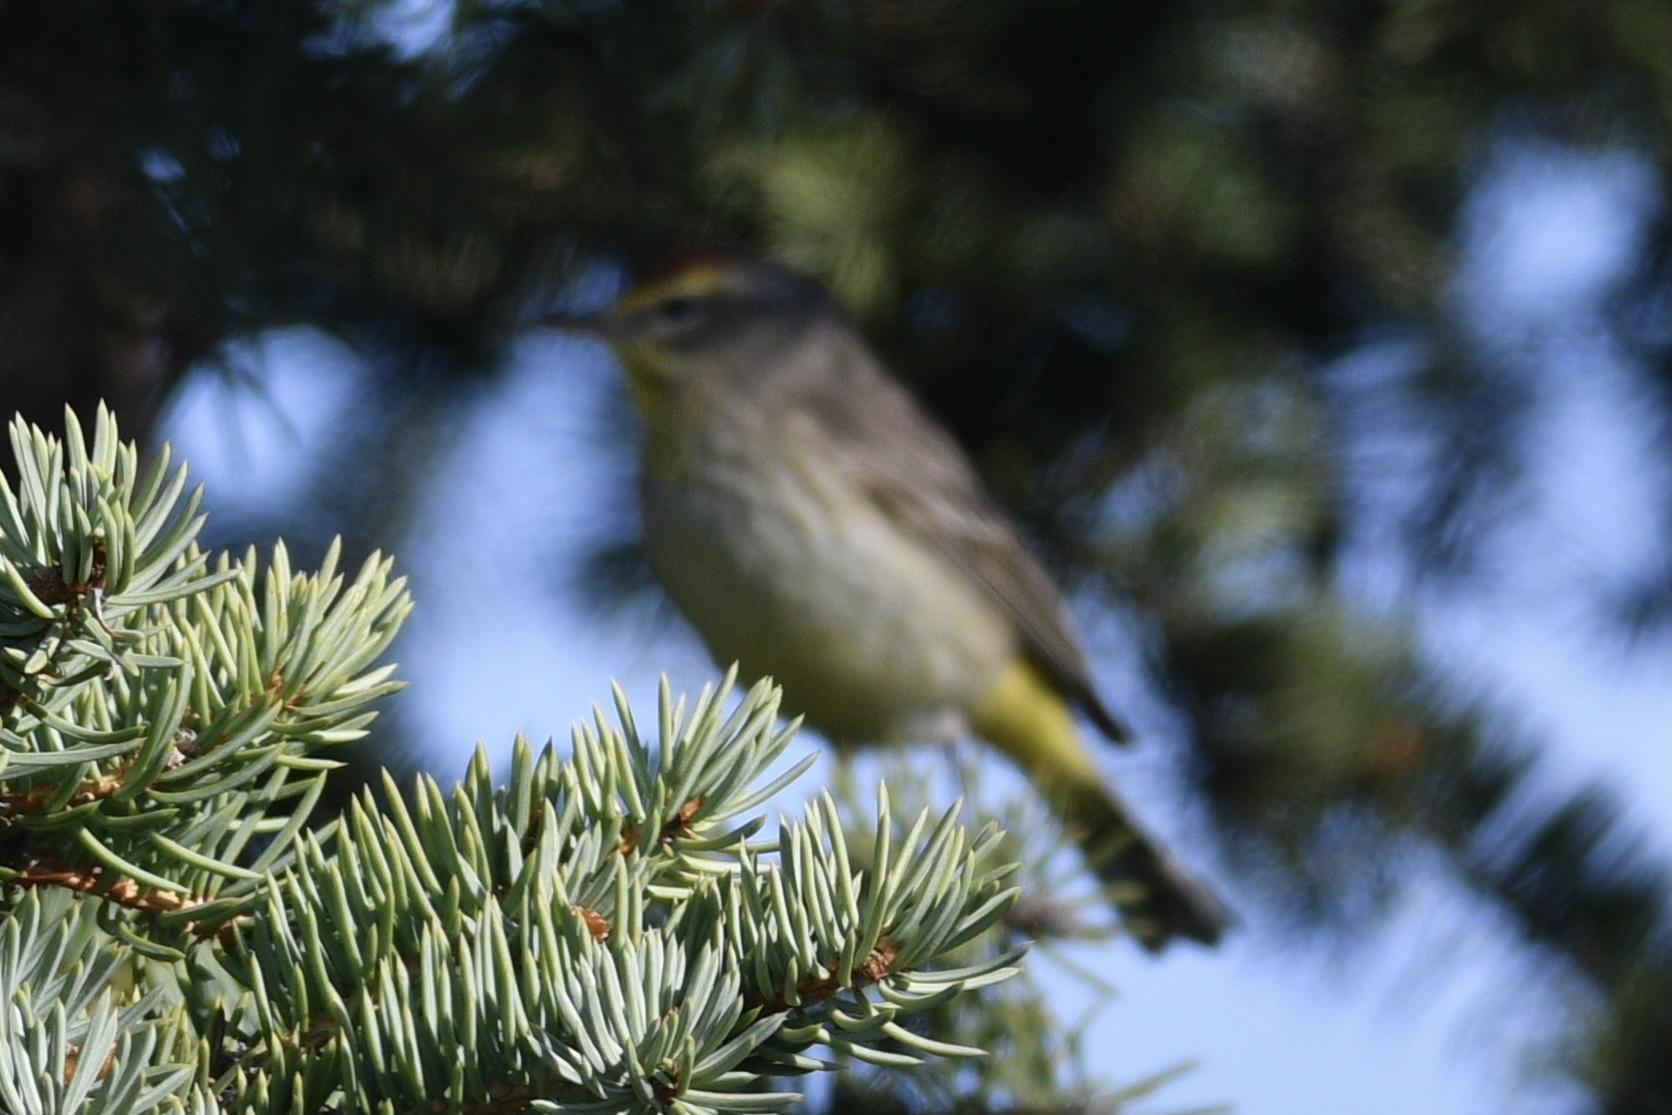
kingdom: Animalia
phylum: Chordata
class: Aves
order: Passeriformes
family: Parulidae
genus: Setophaga
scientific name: Setophaga palmarum
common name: Palm warbler
